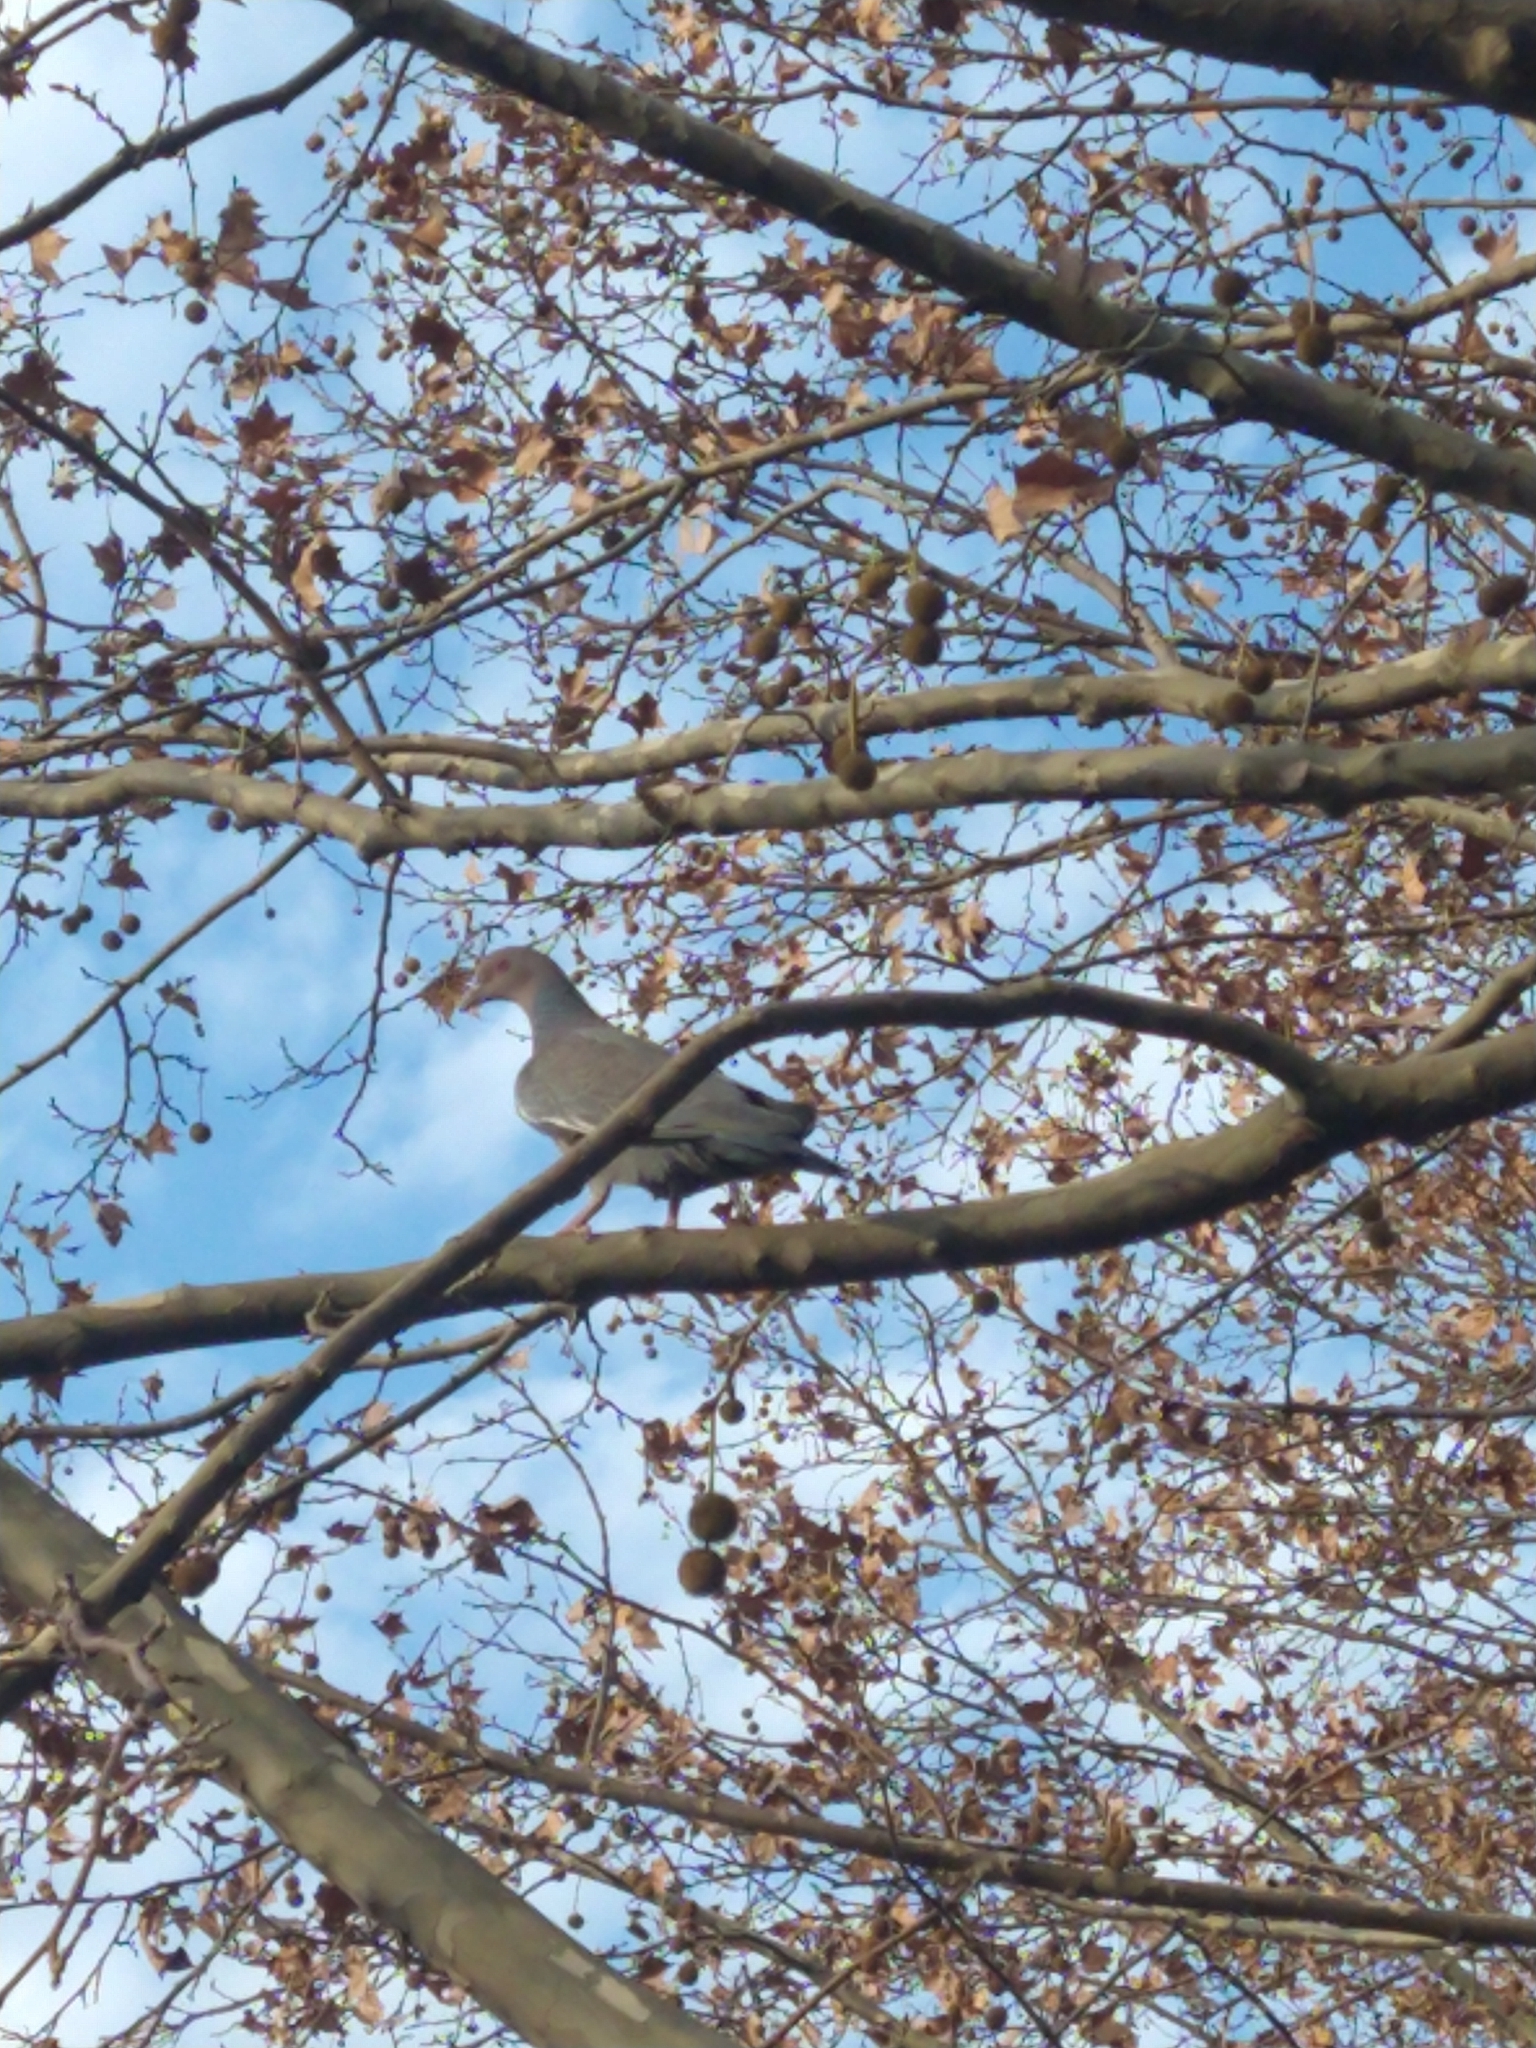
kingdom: Animalia
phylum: Chordata
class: Aves
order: Columbiformes
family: Columbidae
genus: Patagioenas
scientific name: Patagioenas picazuro
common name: Picazuro pigeon
